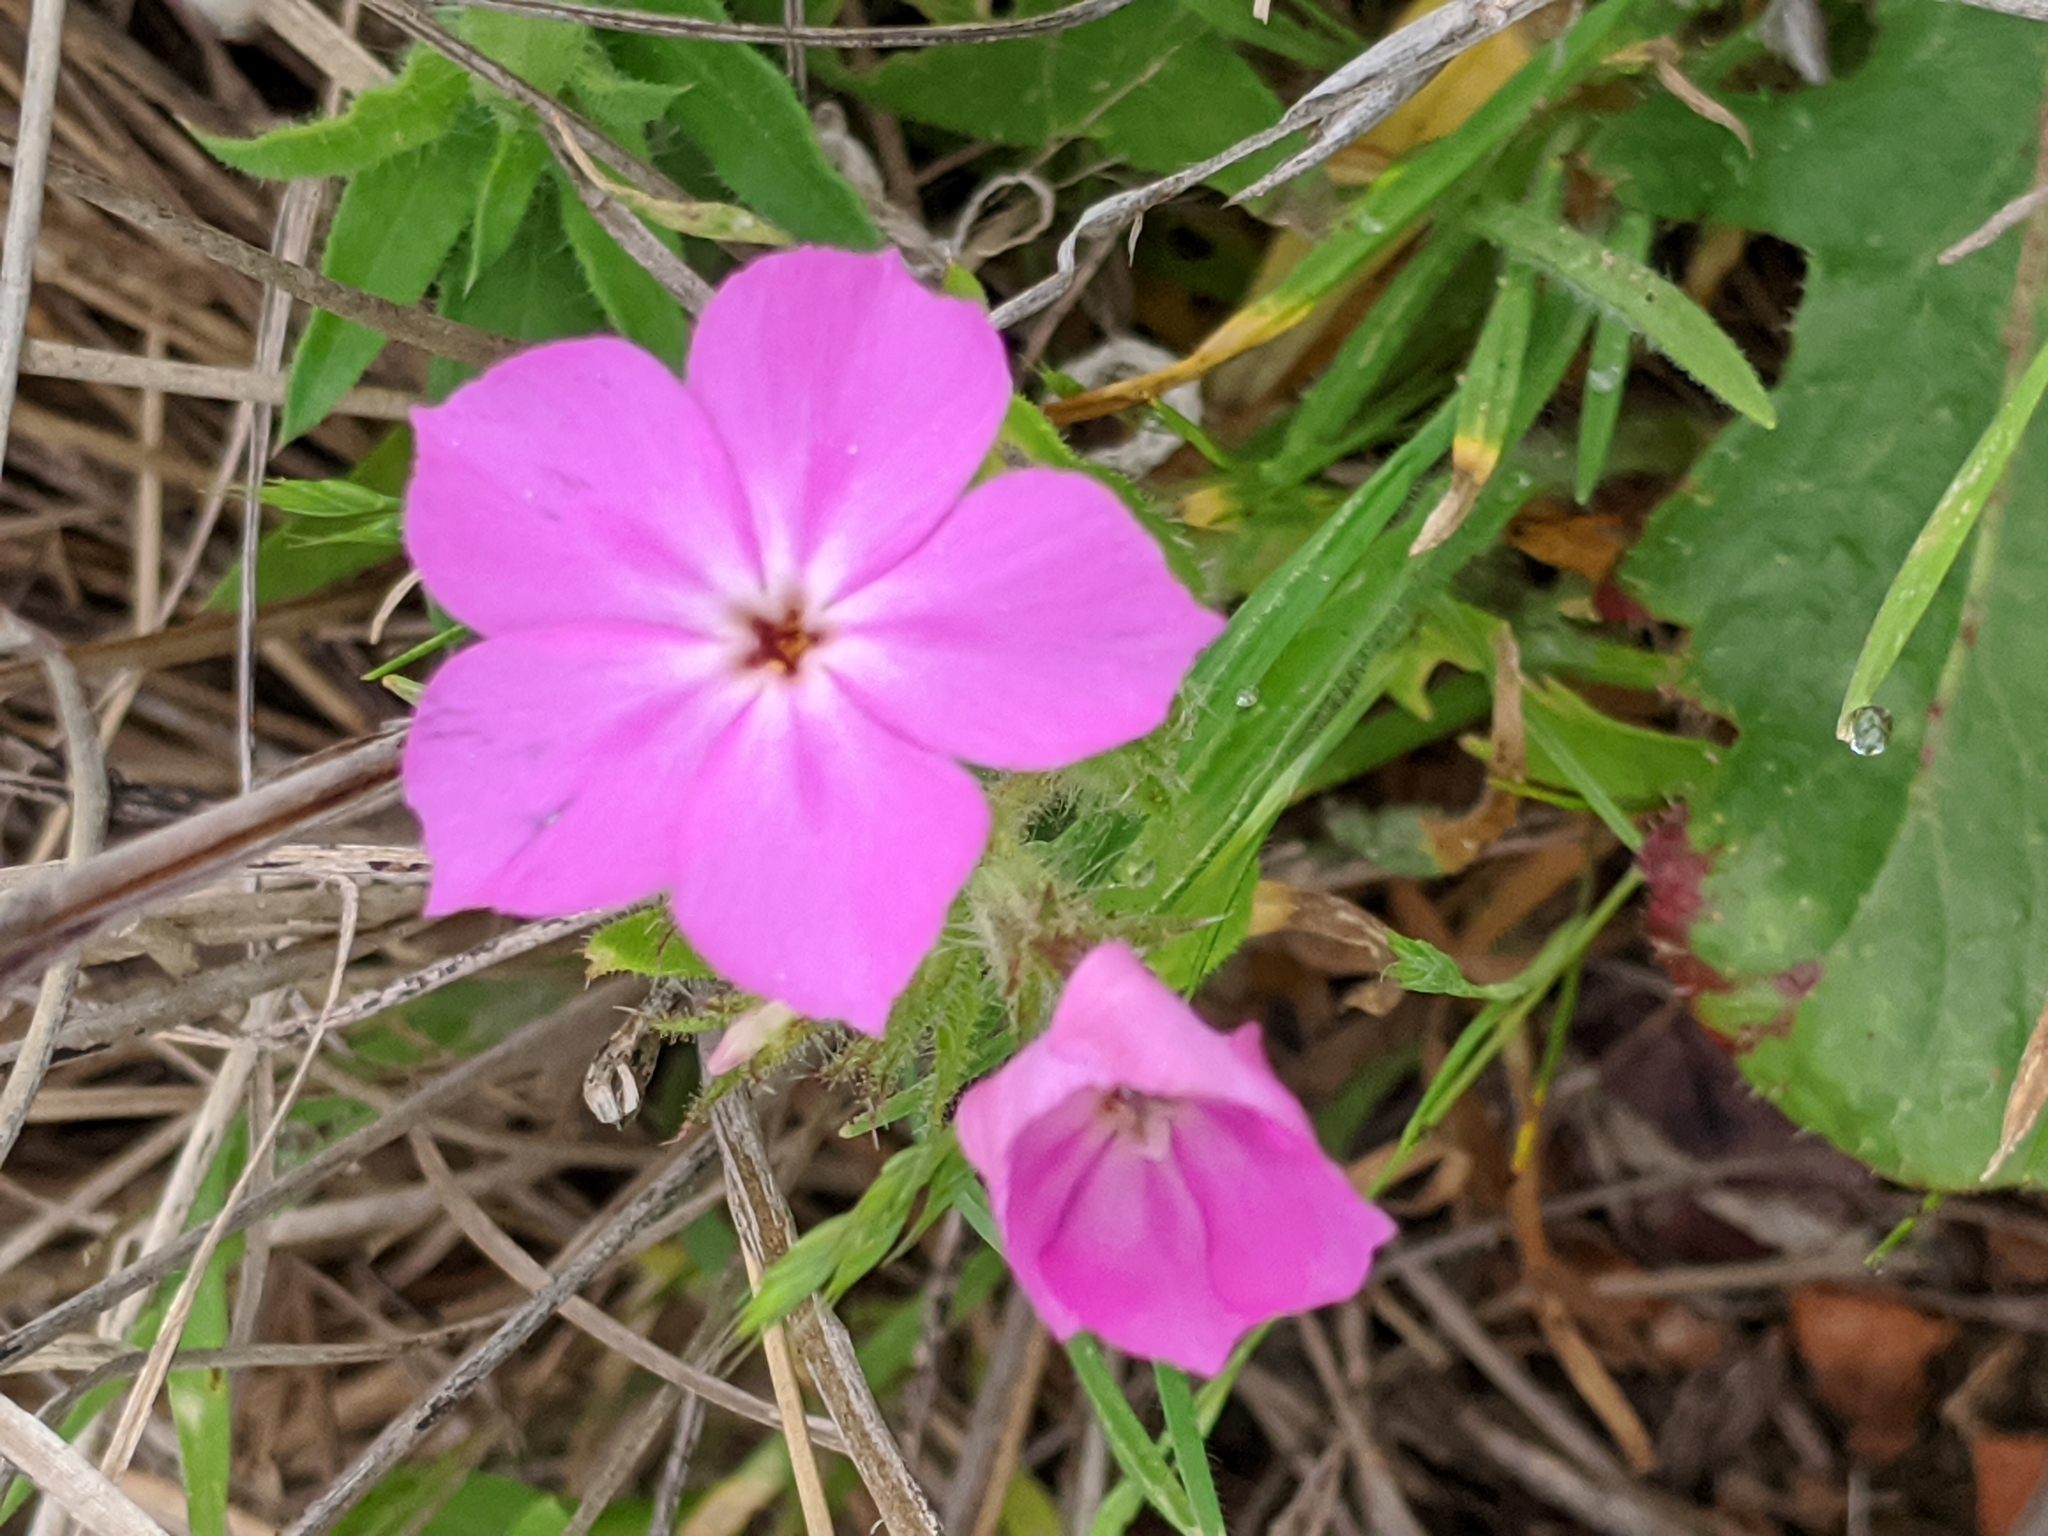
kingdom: Plantae
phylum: Tracheophyta
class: Magnoliopsida
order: Ericales
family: Polemoniaceae
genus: Phlox
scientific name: Phlox drummondii
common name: Drummond's phlox
